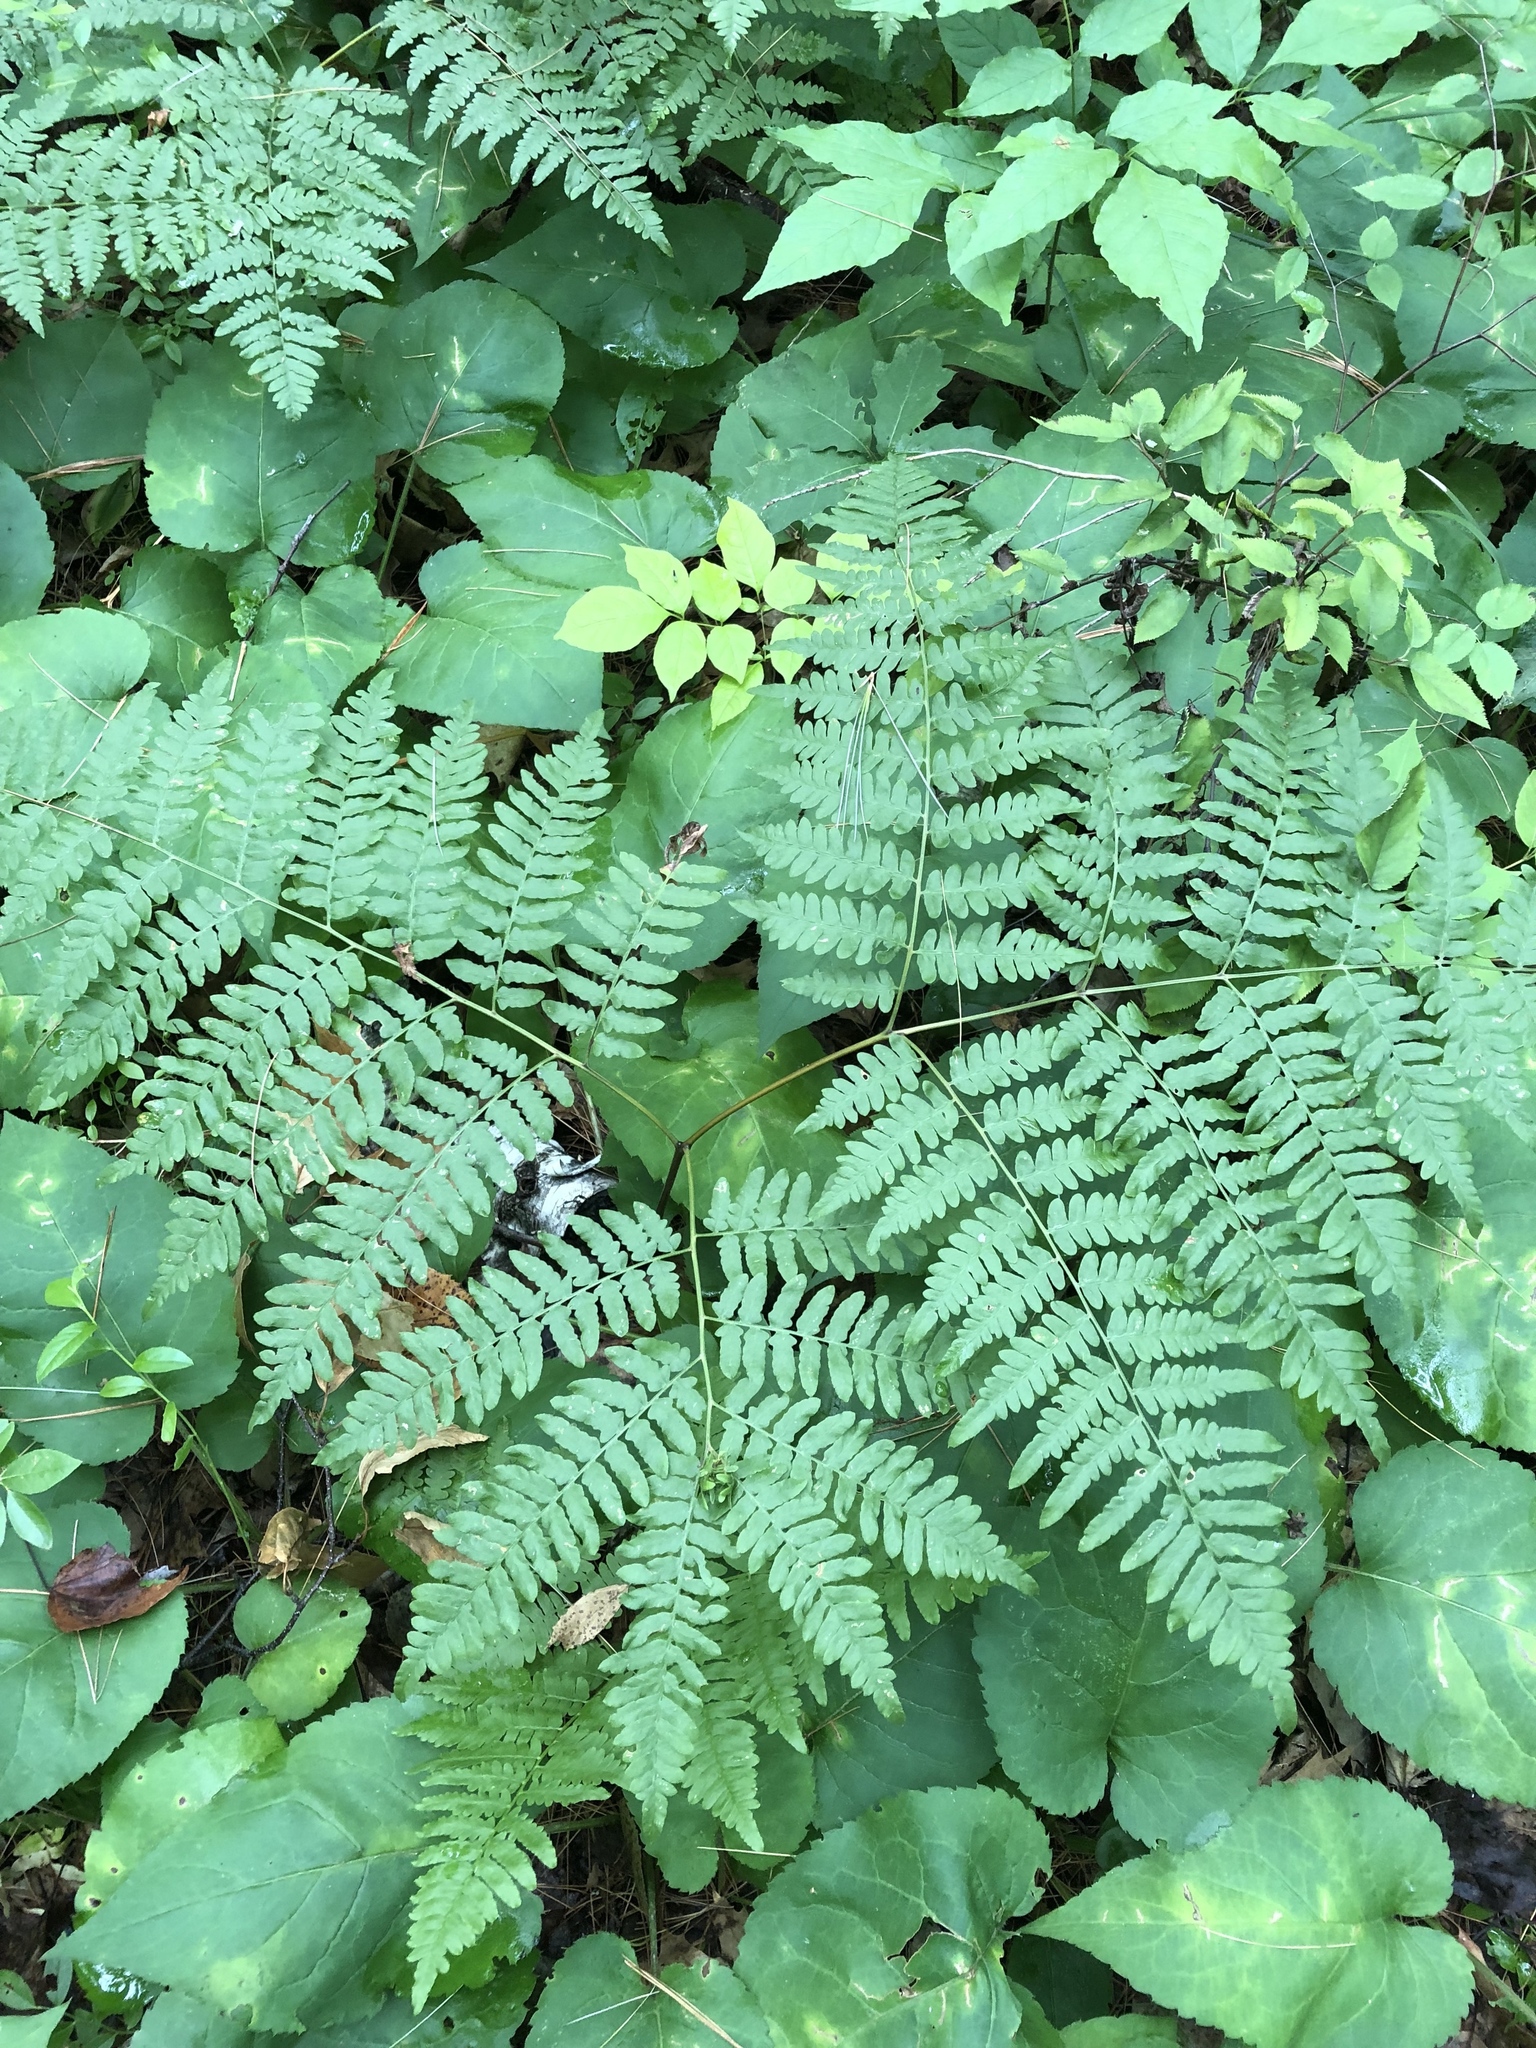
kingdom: Plantae
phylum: Tracheophyta
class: Polypodiopsida
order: Polypodiales
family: Dennstaedtiaceae
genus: Pteridium
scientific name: Pteridium aquilinum
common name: Bracken
